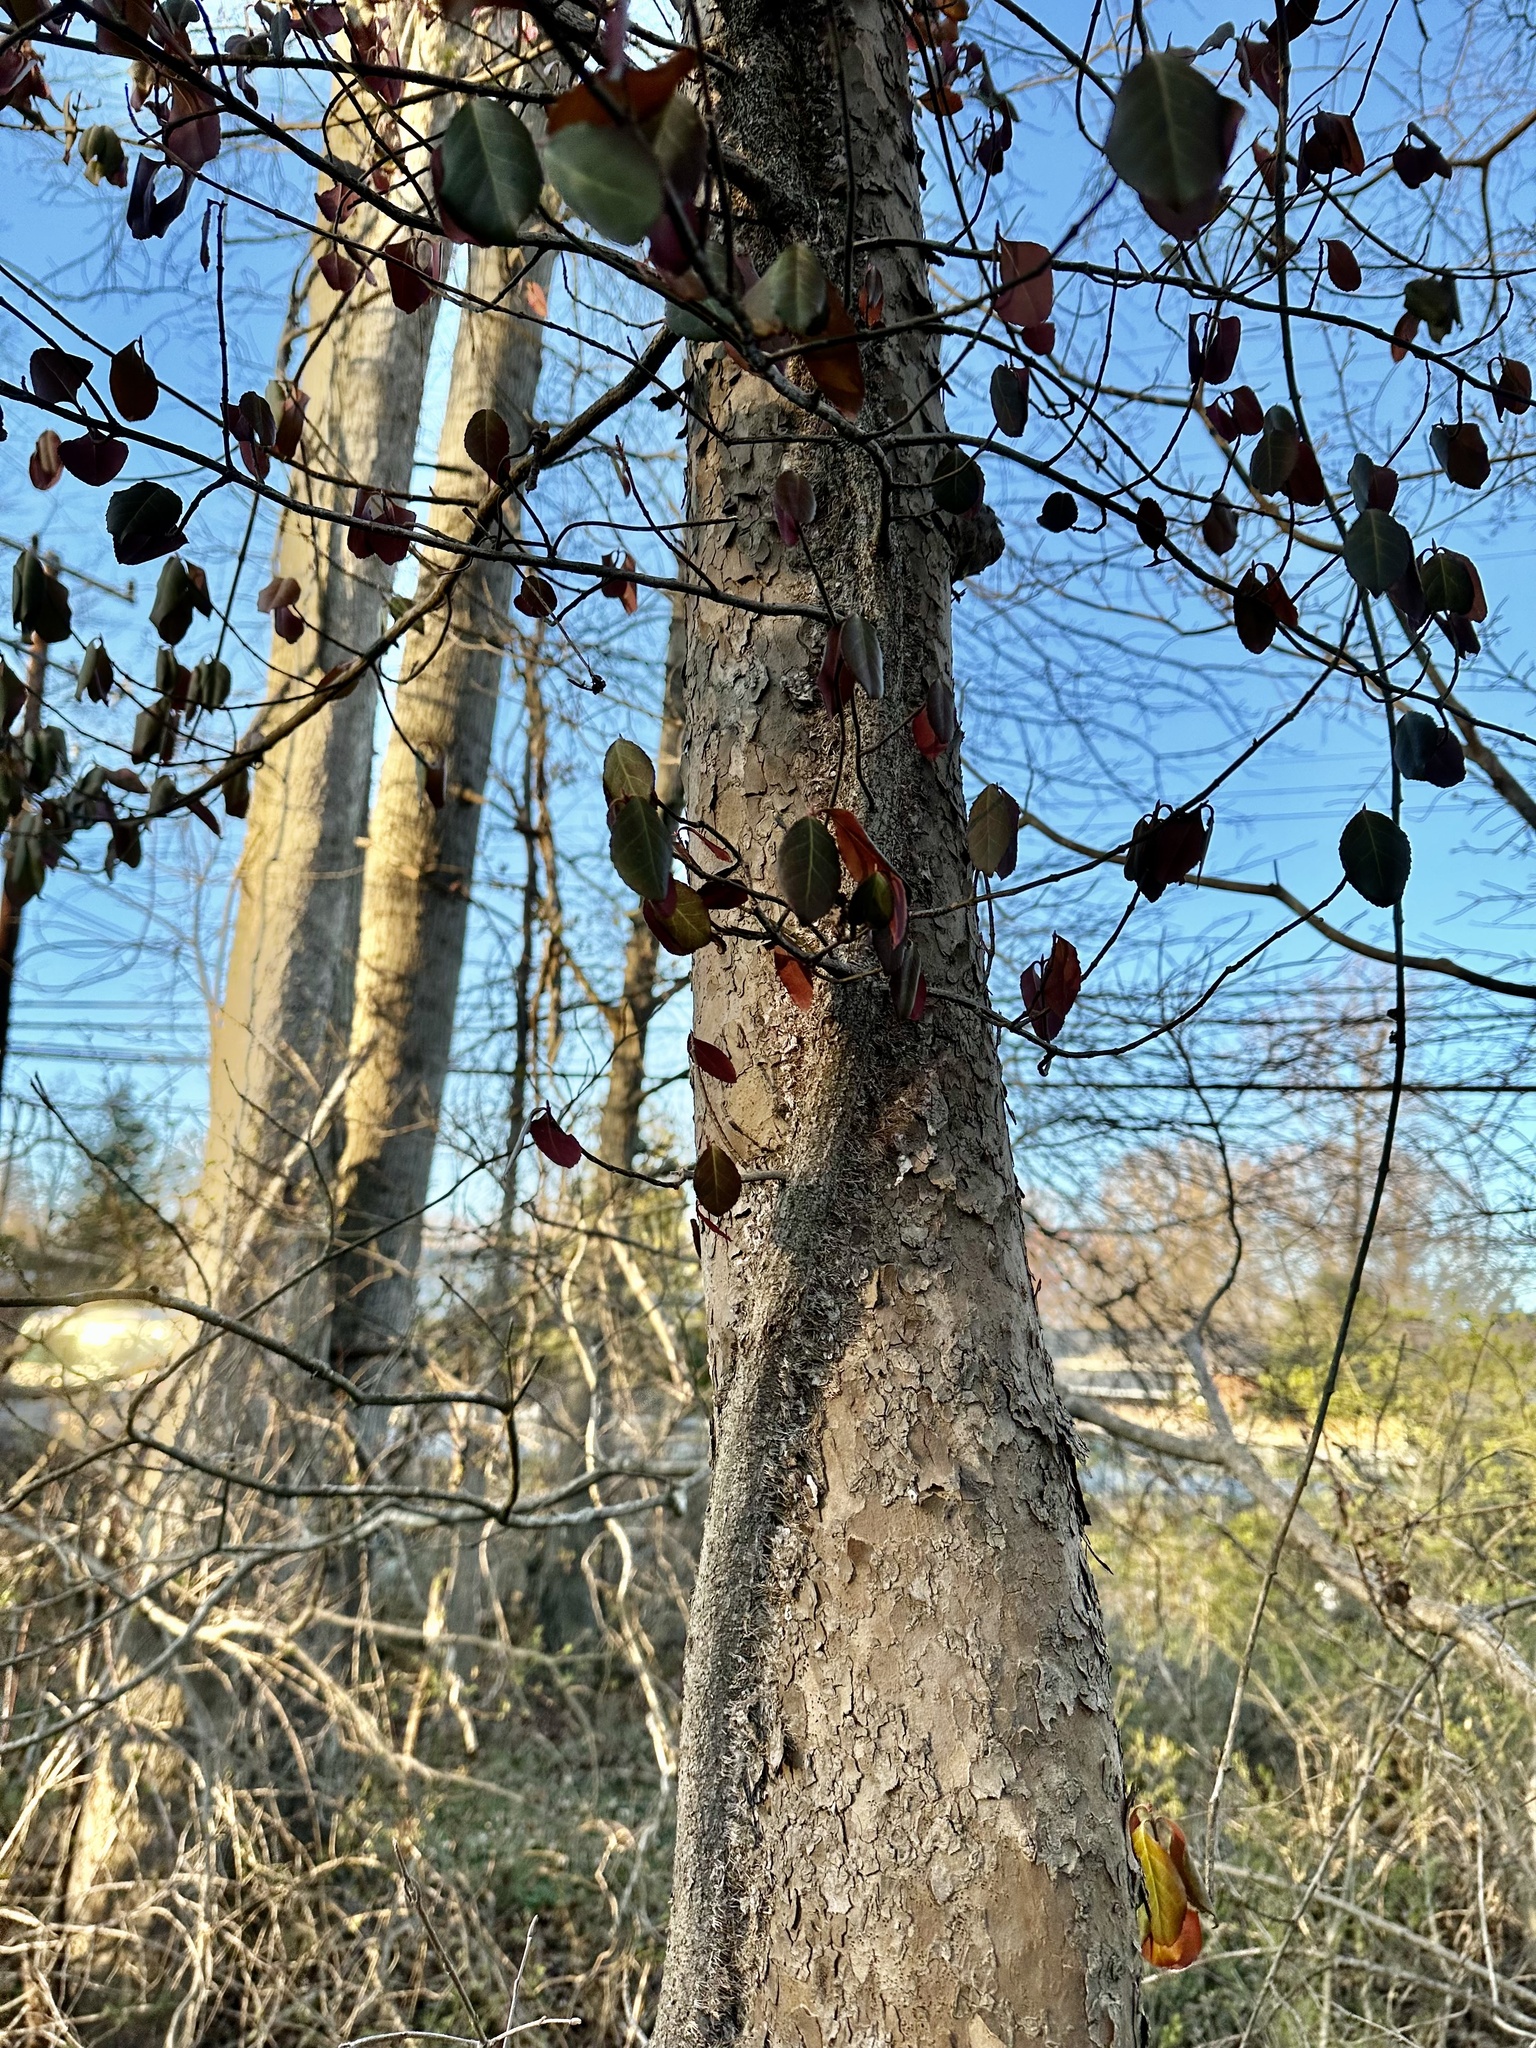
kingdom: Plantae
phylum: Tracheophyta
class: Magnoliopsida
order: Celastrales
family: Celastraceae
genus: Euonymus
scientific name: Euonymus fortunei
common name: Climbing euonymus
